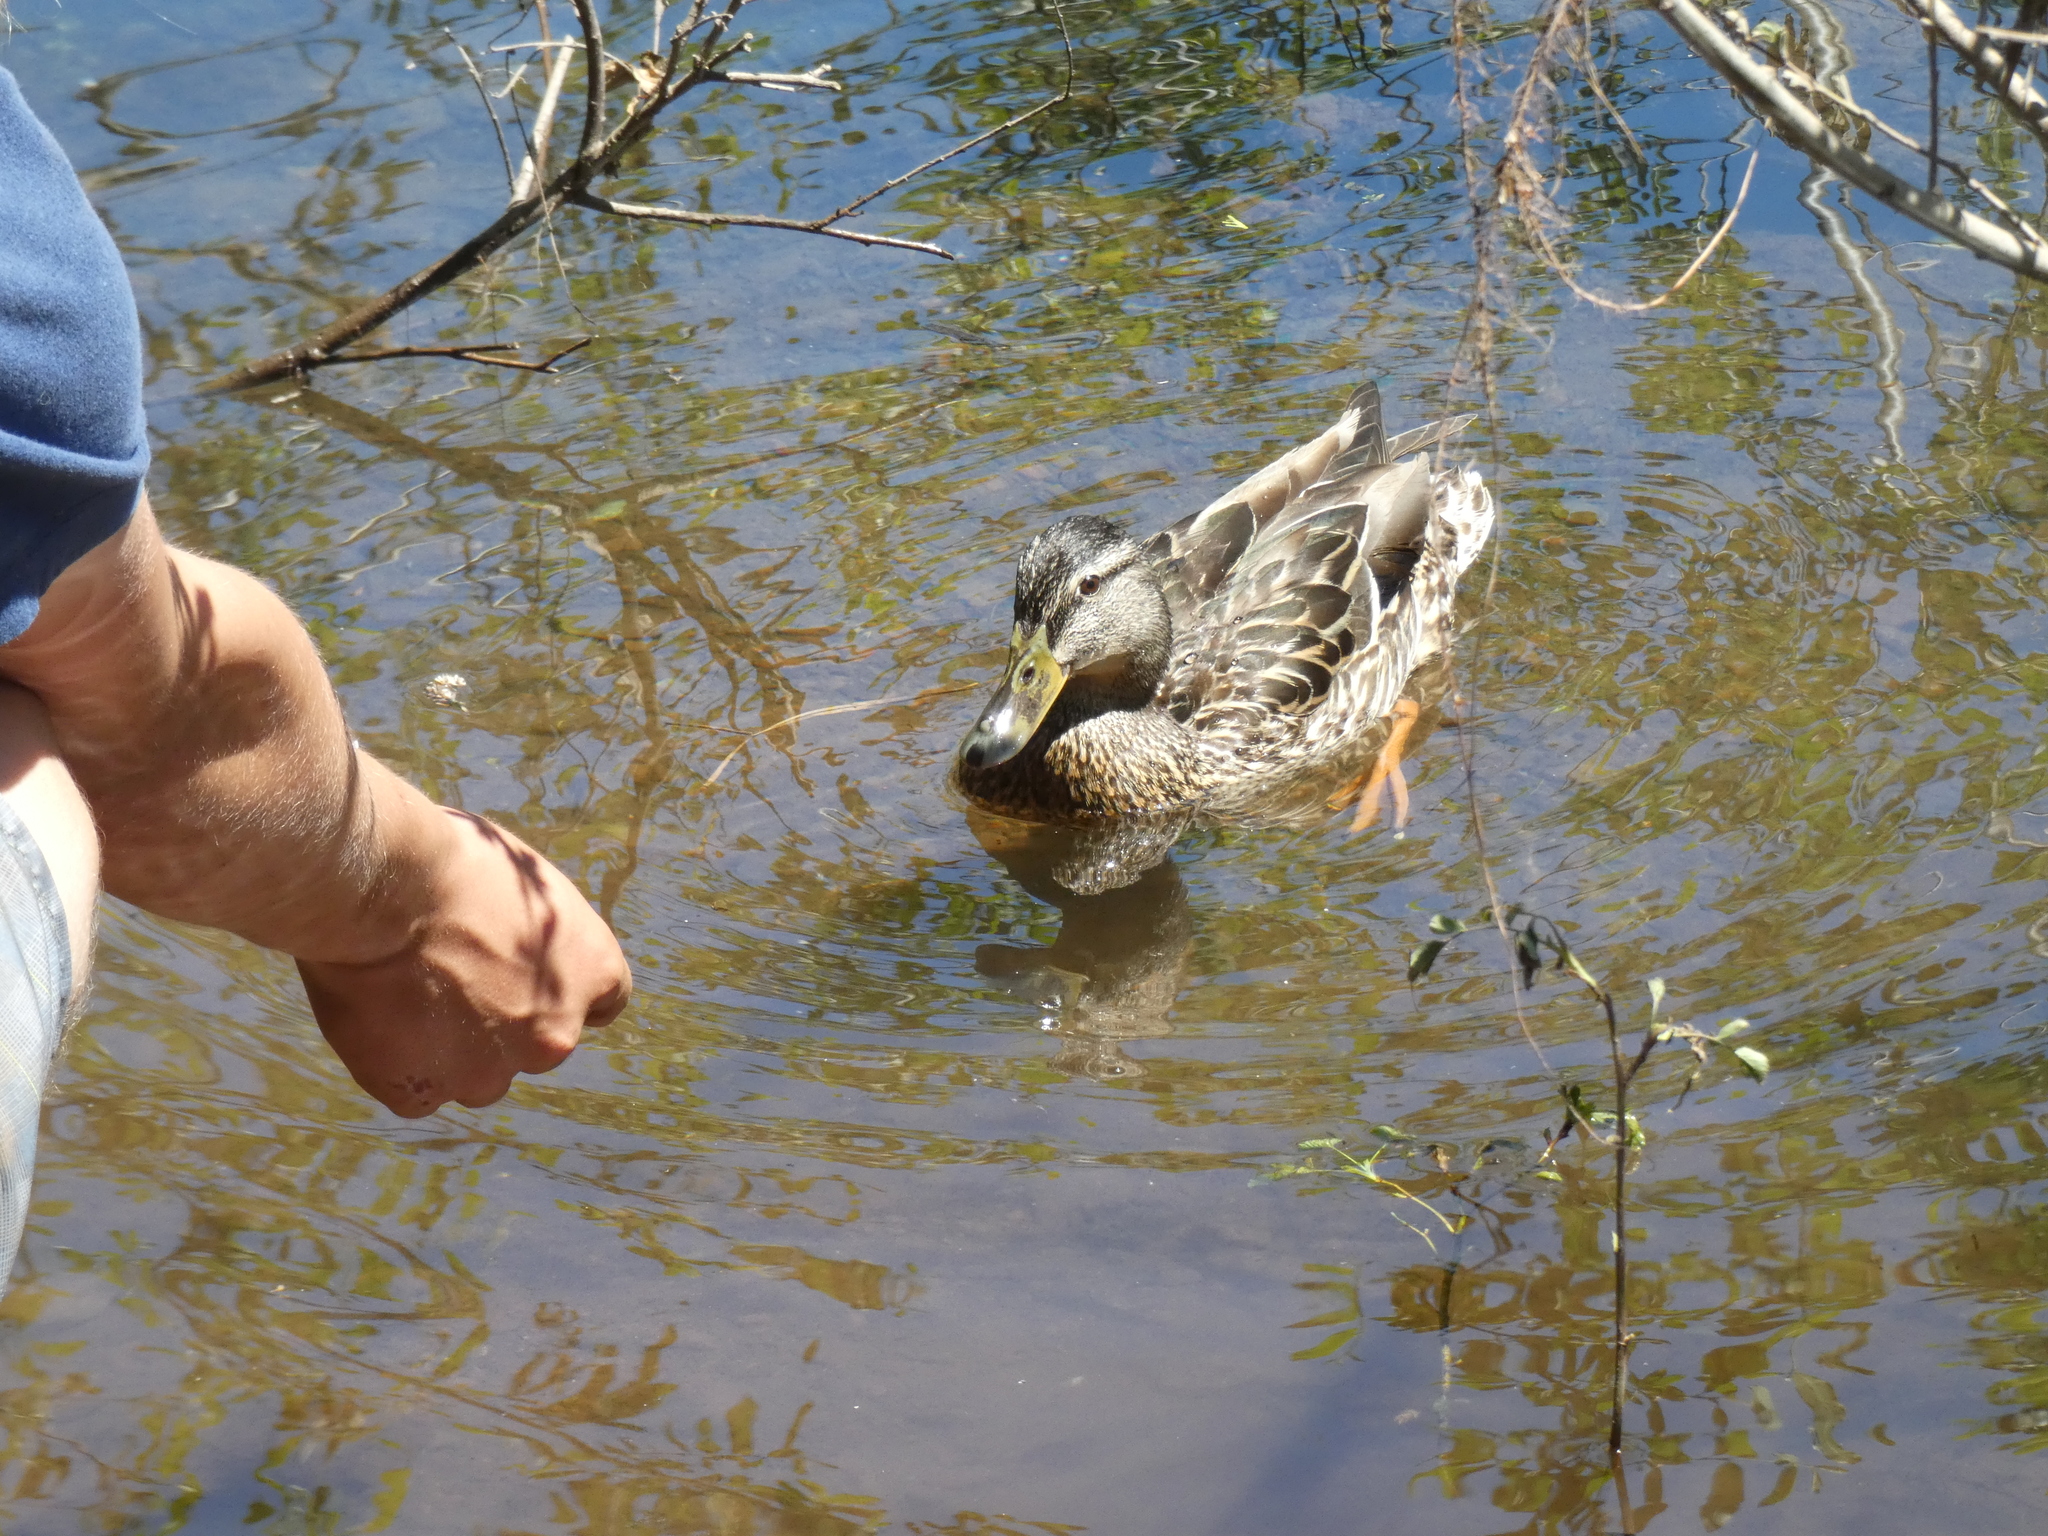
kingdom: Animalia
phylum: Chordata
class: Aves
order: Anseriformes
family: Anatidae
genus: Anas
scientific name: Anas platyrhynchos
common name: Mallard
